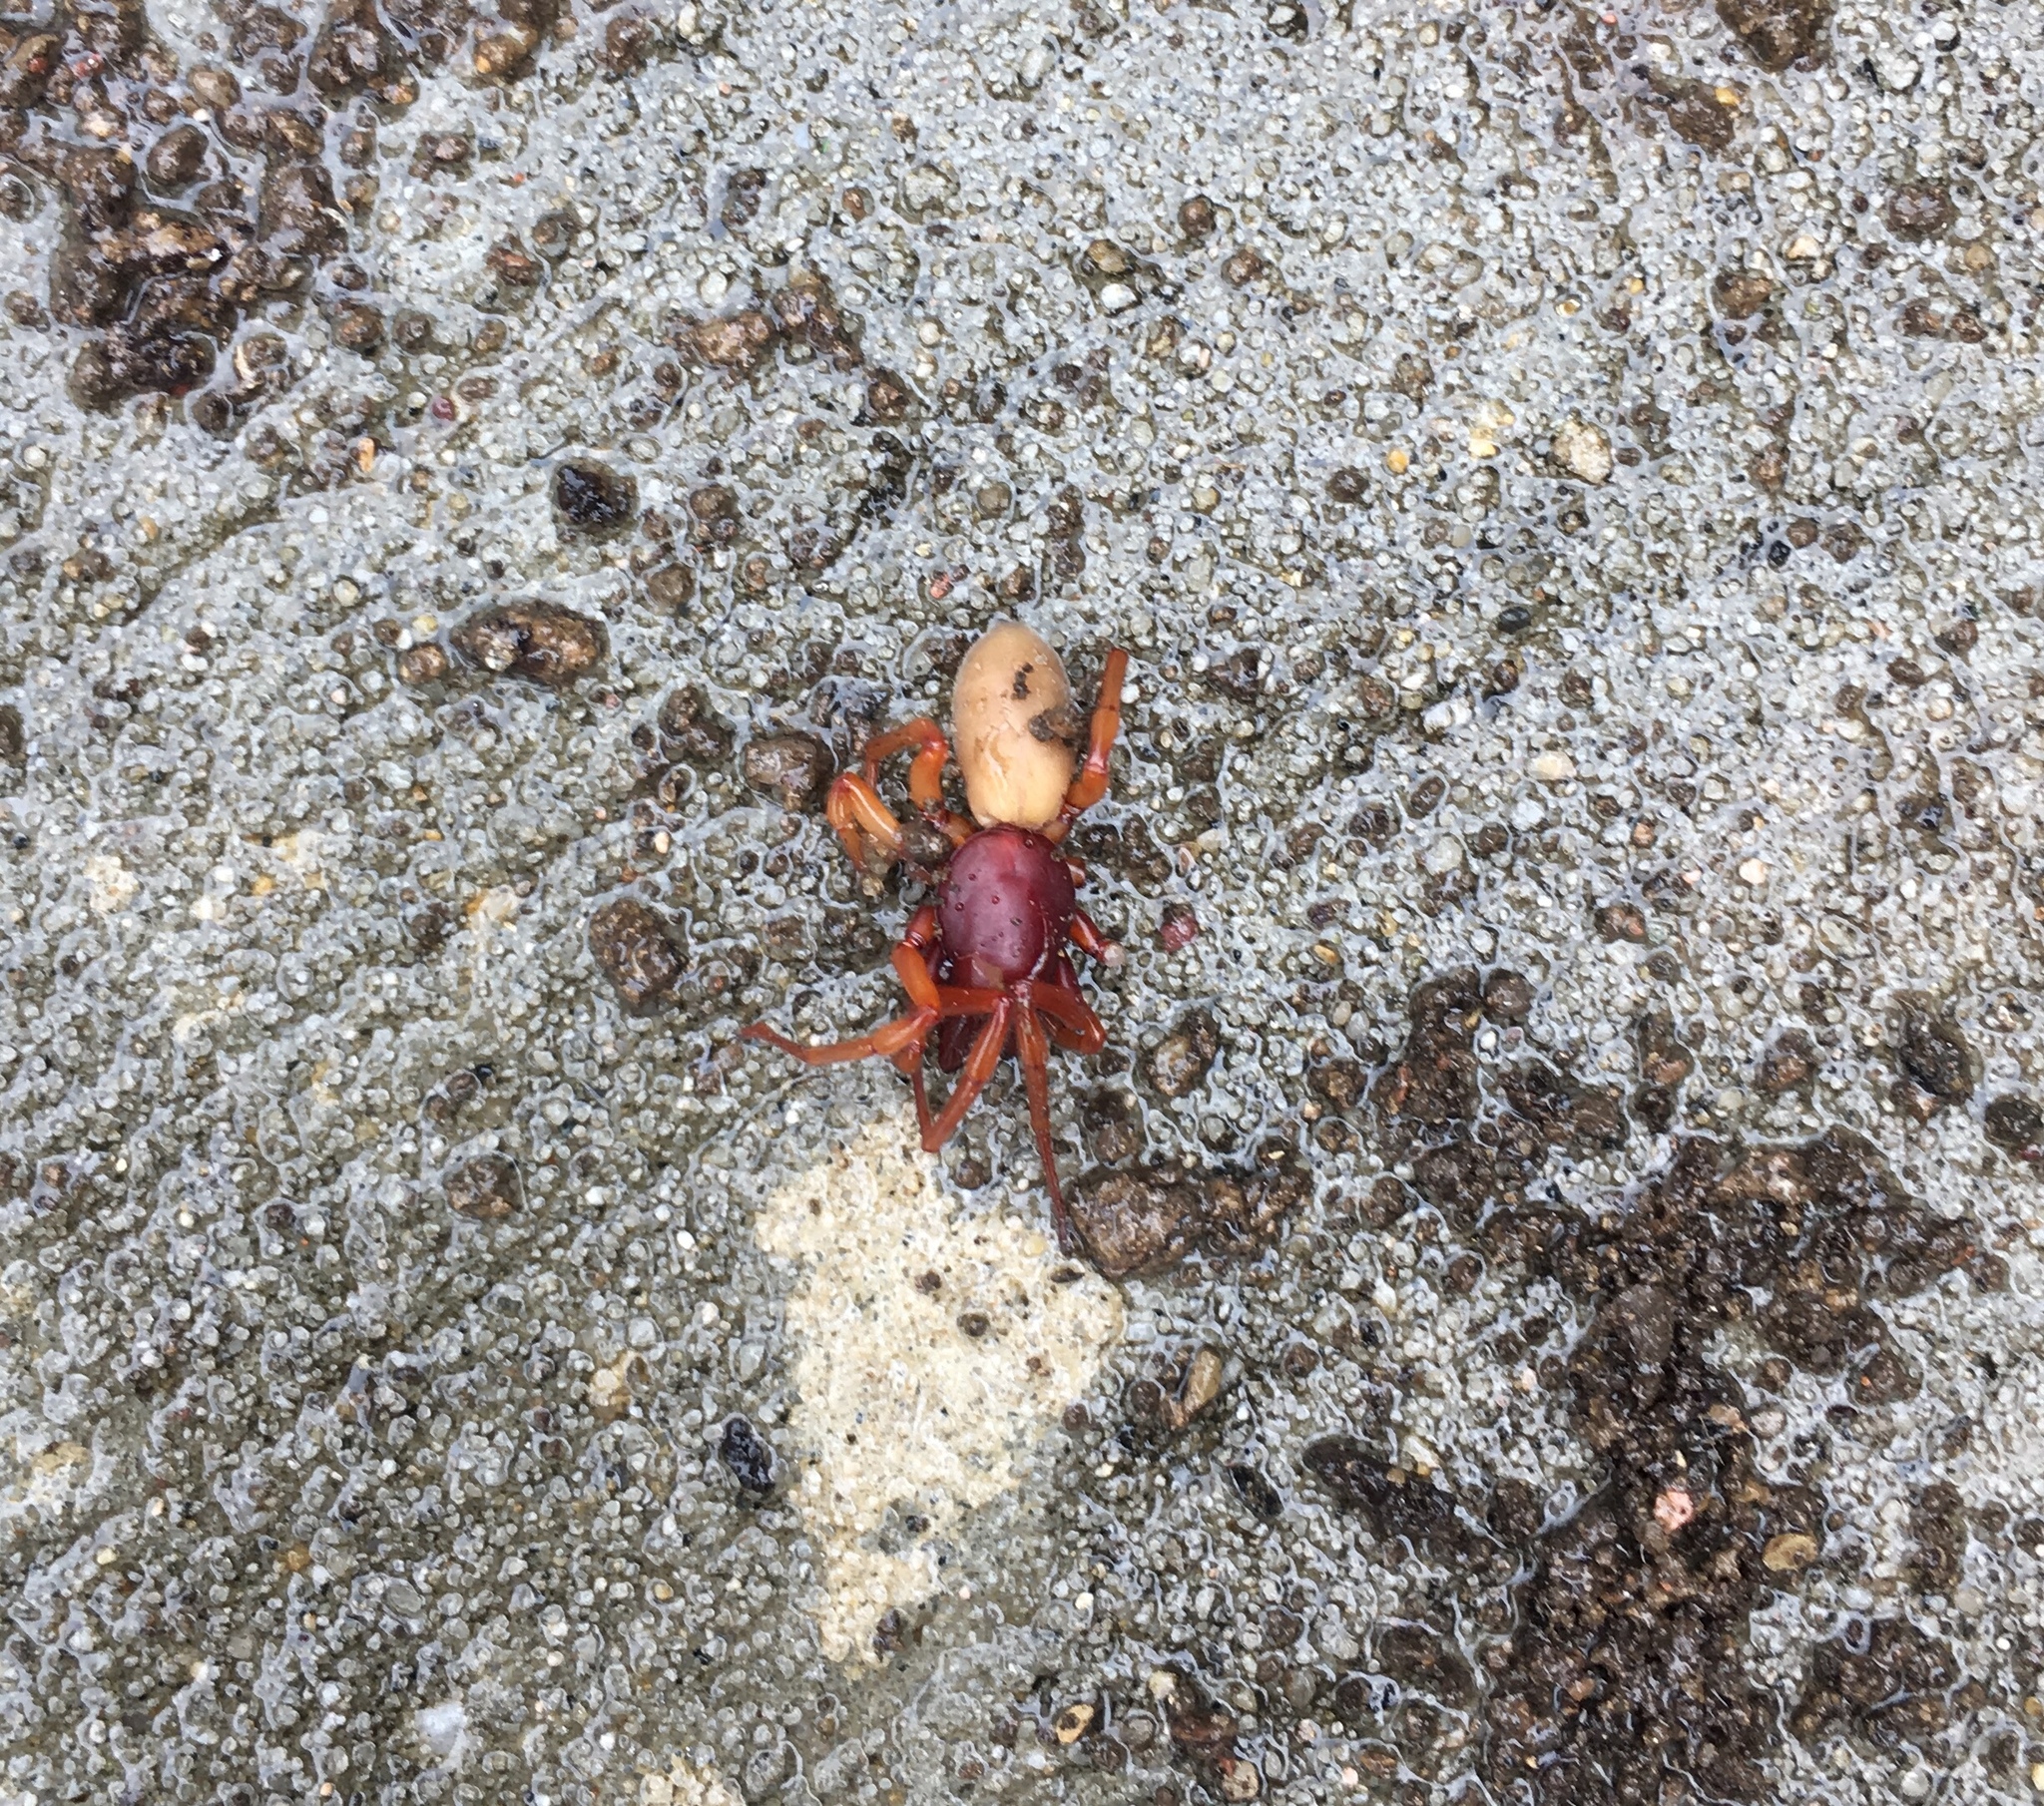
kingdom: Animalia
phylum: Arthropoda
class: Arachnida
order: Araneae
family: Dysderidae
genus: Dysdera
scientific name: Dysdera crocata
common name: Woodlouse spider
